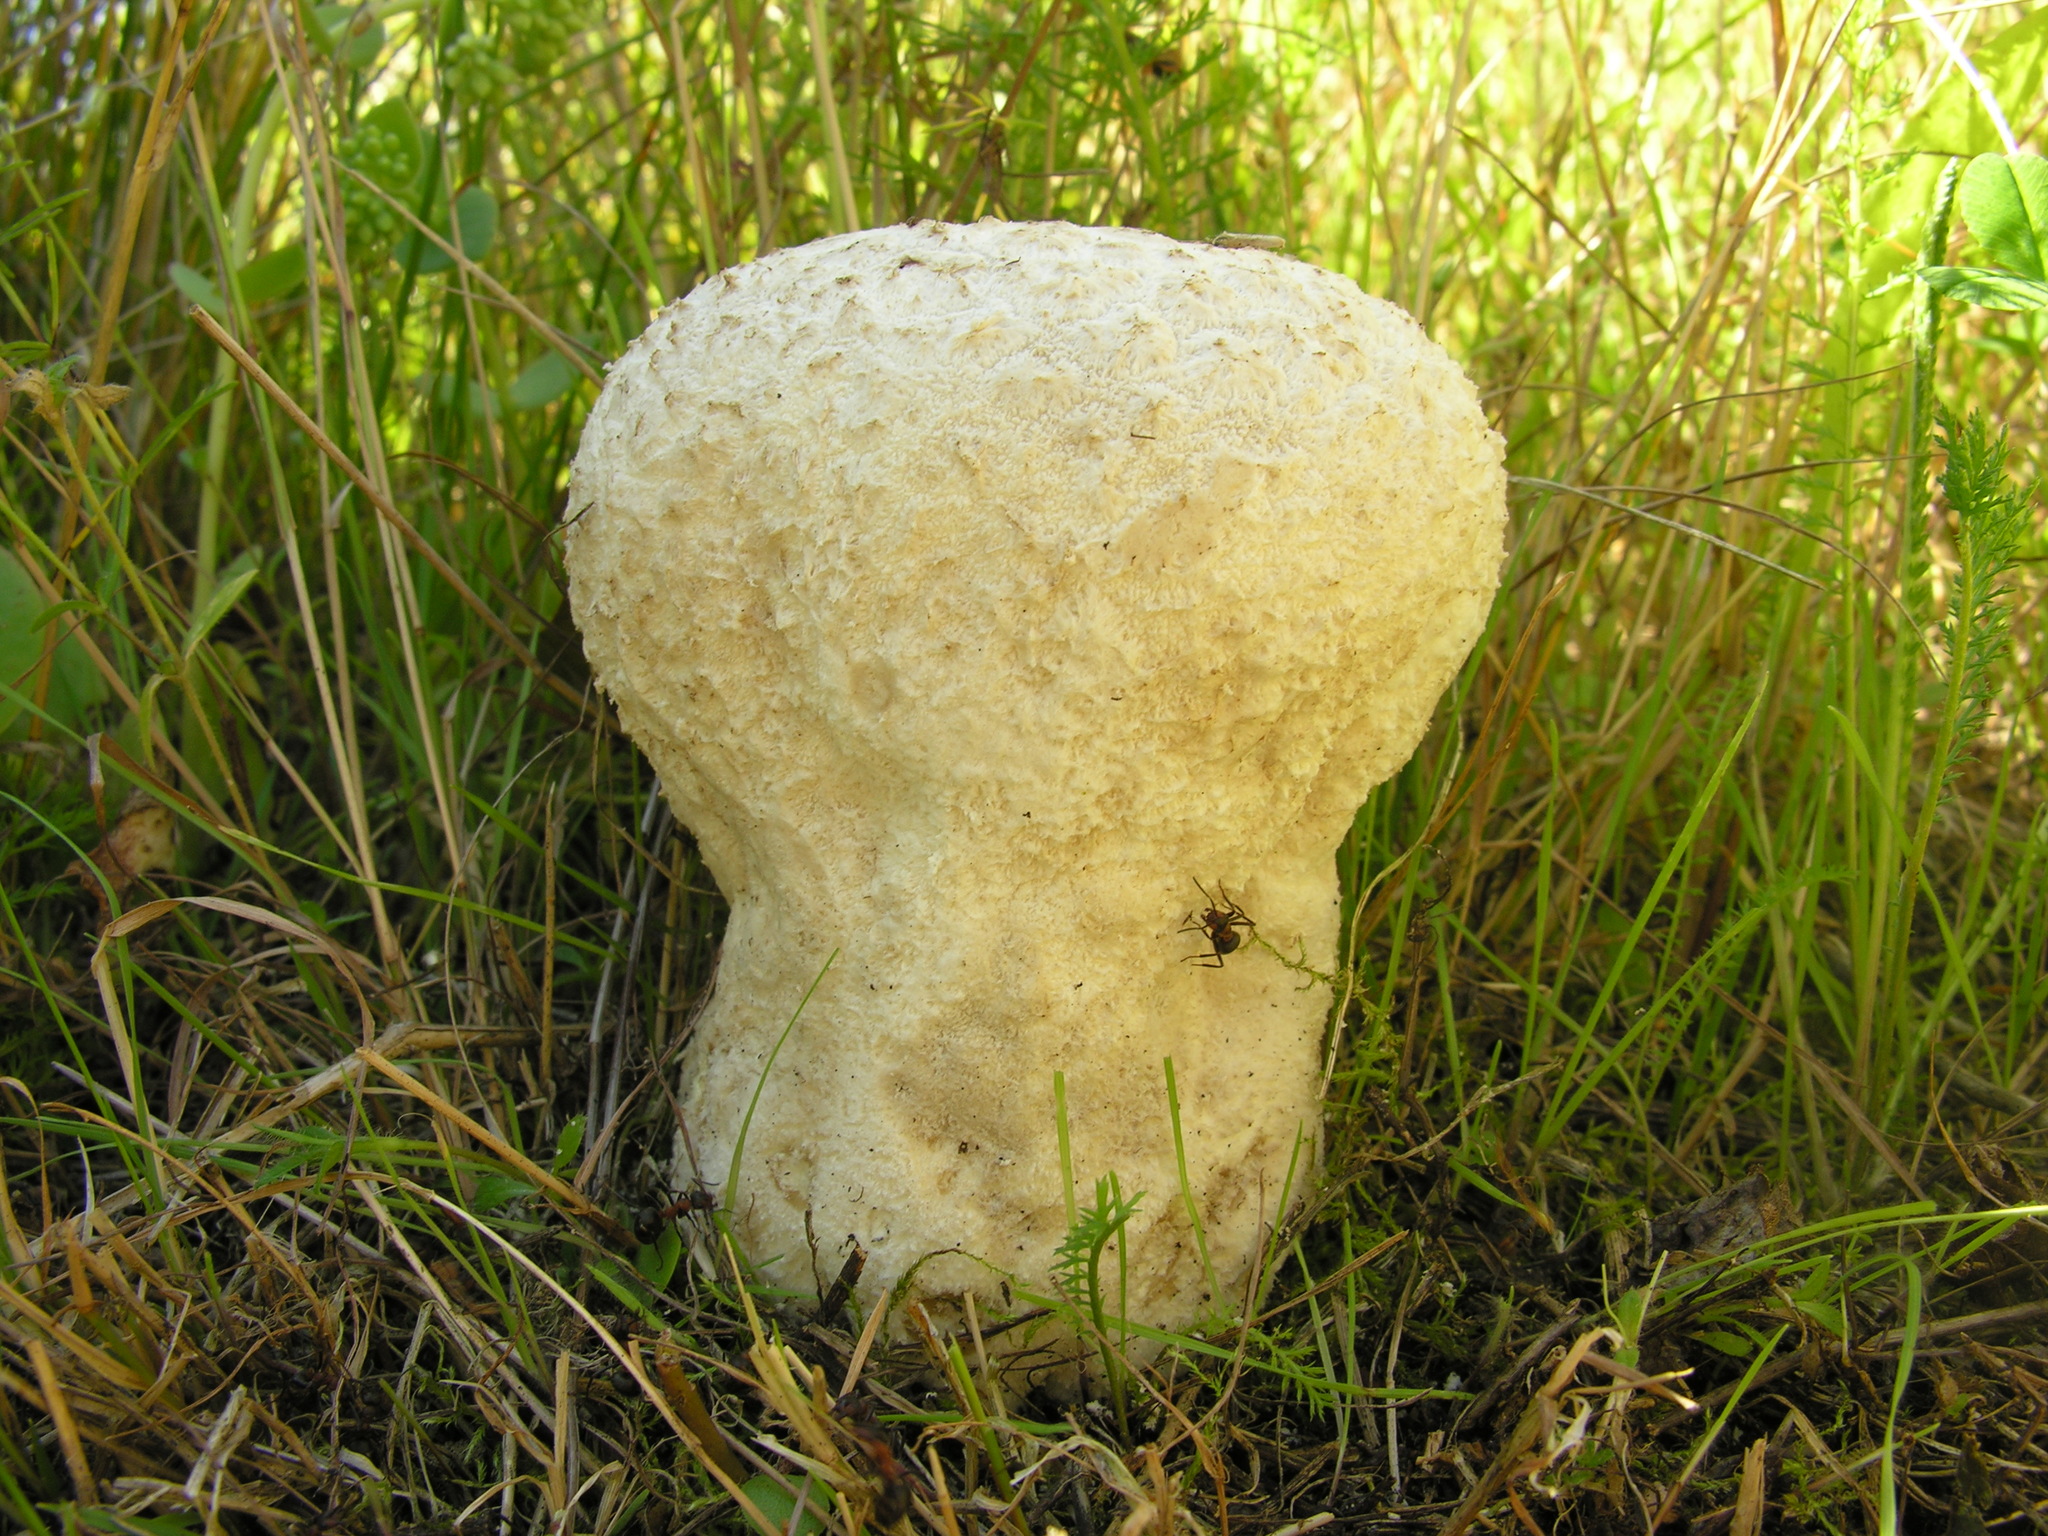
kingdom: Fungi
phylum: Basidiomycota
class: Agaricomycetes
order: Agaricales
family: Lycoperdaceae
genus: Bovistella
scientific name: Bovistella utriformis
